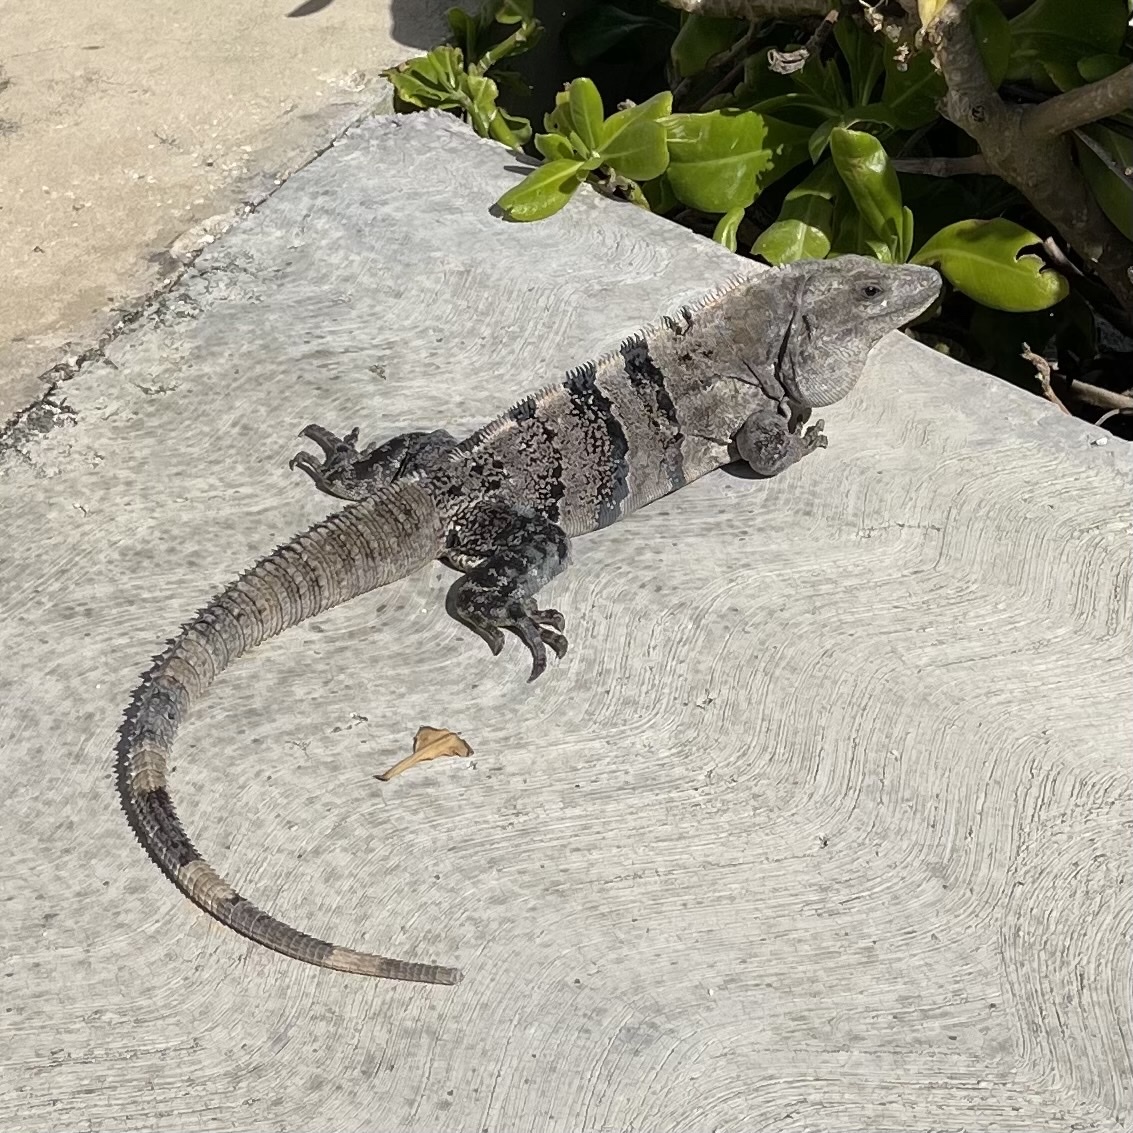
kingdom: Animalia
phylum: Chordata
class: Squamata
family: Iguanidae
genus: Ctenosaura
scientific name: Ctenosaura similis
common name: Black spiny-tailed iguana
